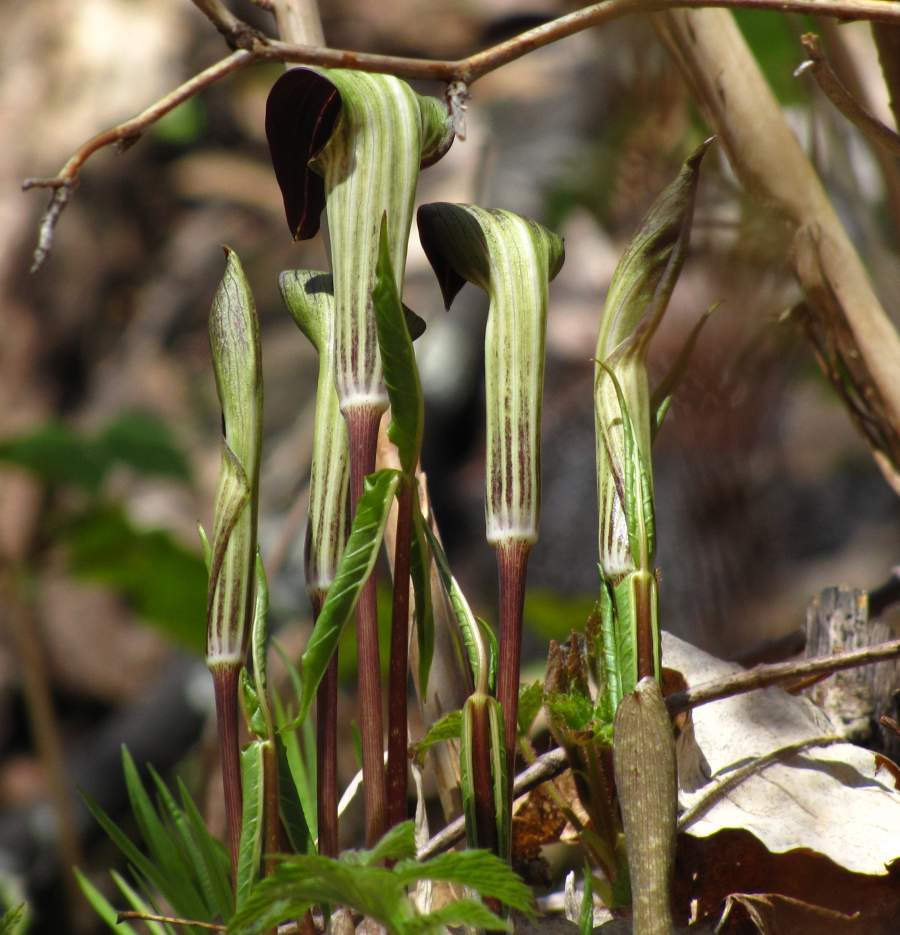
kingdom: Plantae
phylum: Tracheophyta
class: Liliopsida
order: Alismatales
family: Araceae
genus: Arisaema
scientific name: Arisaema triphyllum
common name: Jack-in-the-pulpit
